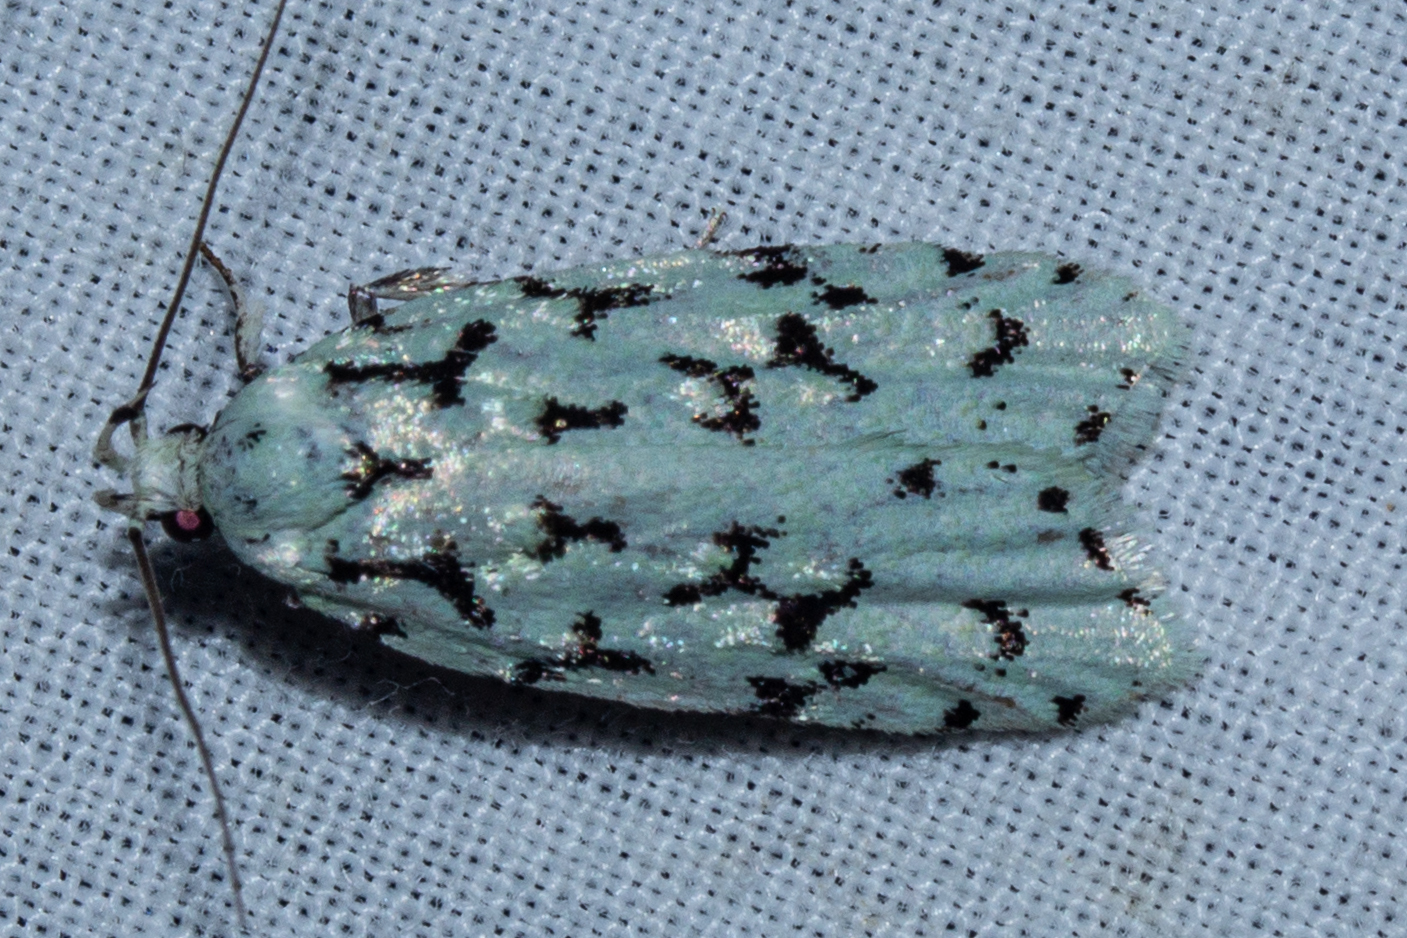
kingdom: Animalia
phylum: Arthropoda
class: Insecta
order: Lepidoptera
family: Oecophoridae
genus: Izatha
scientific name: Izatha huttoni
